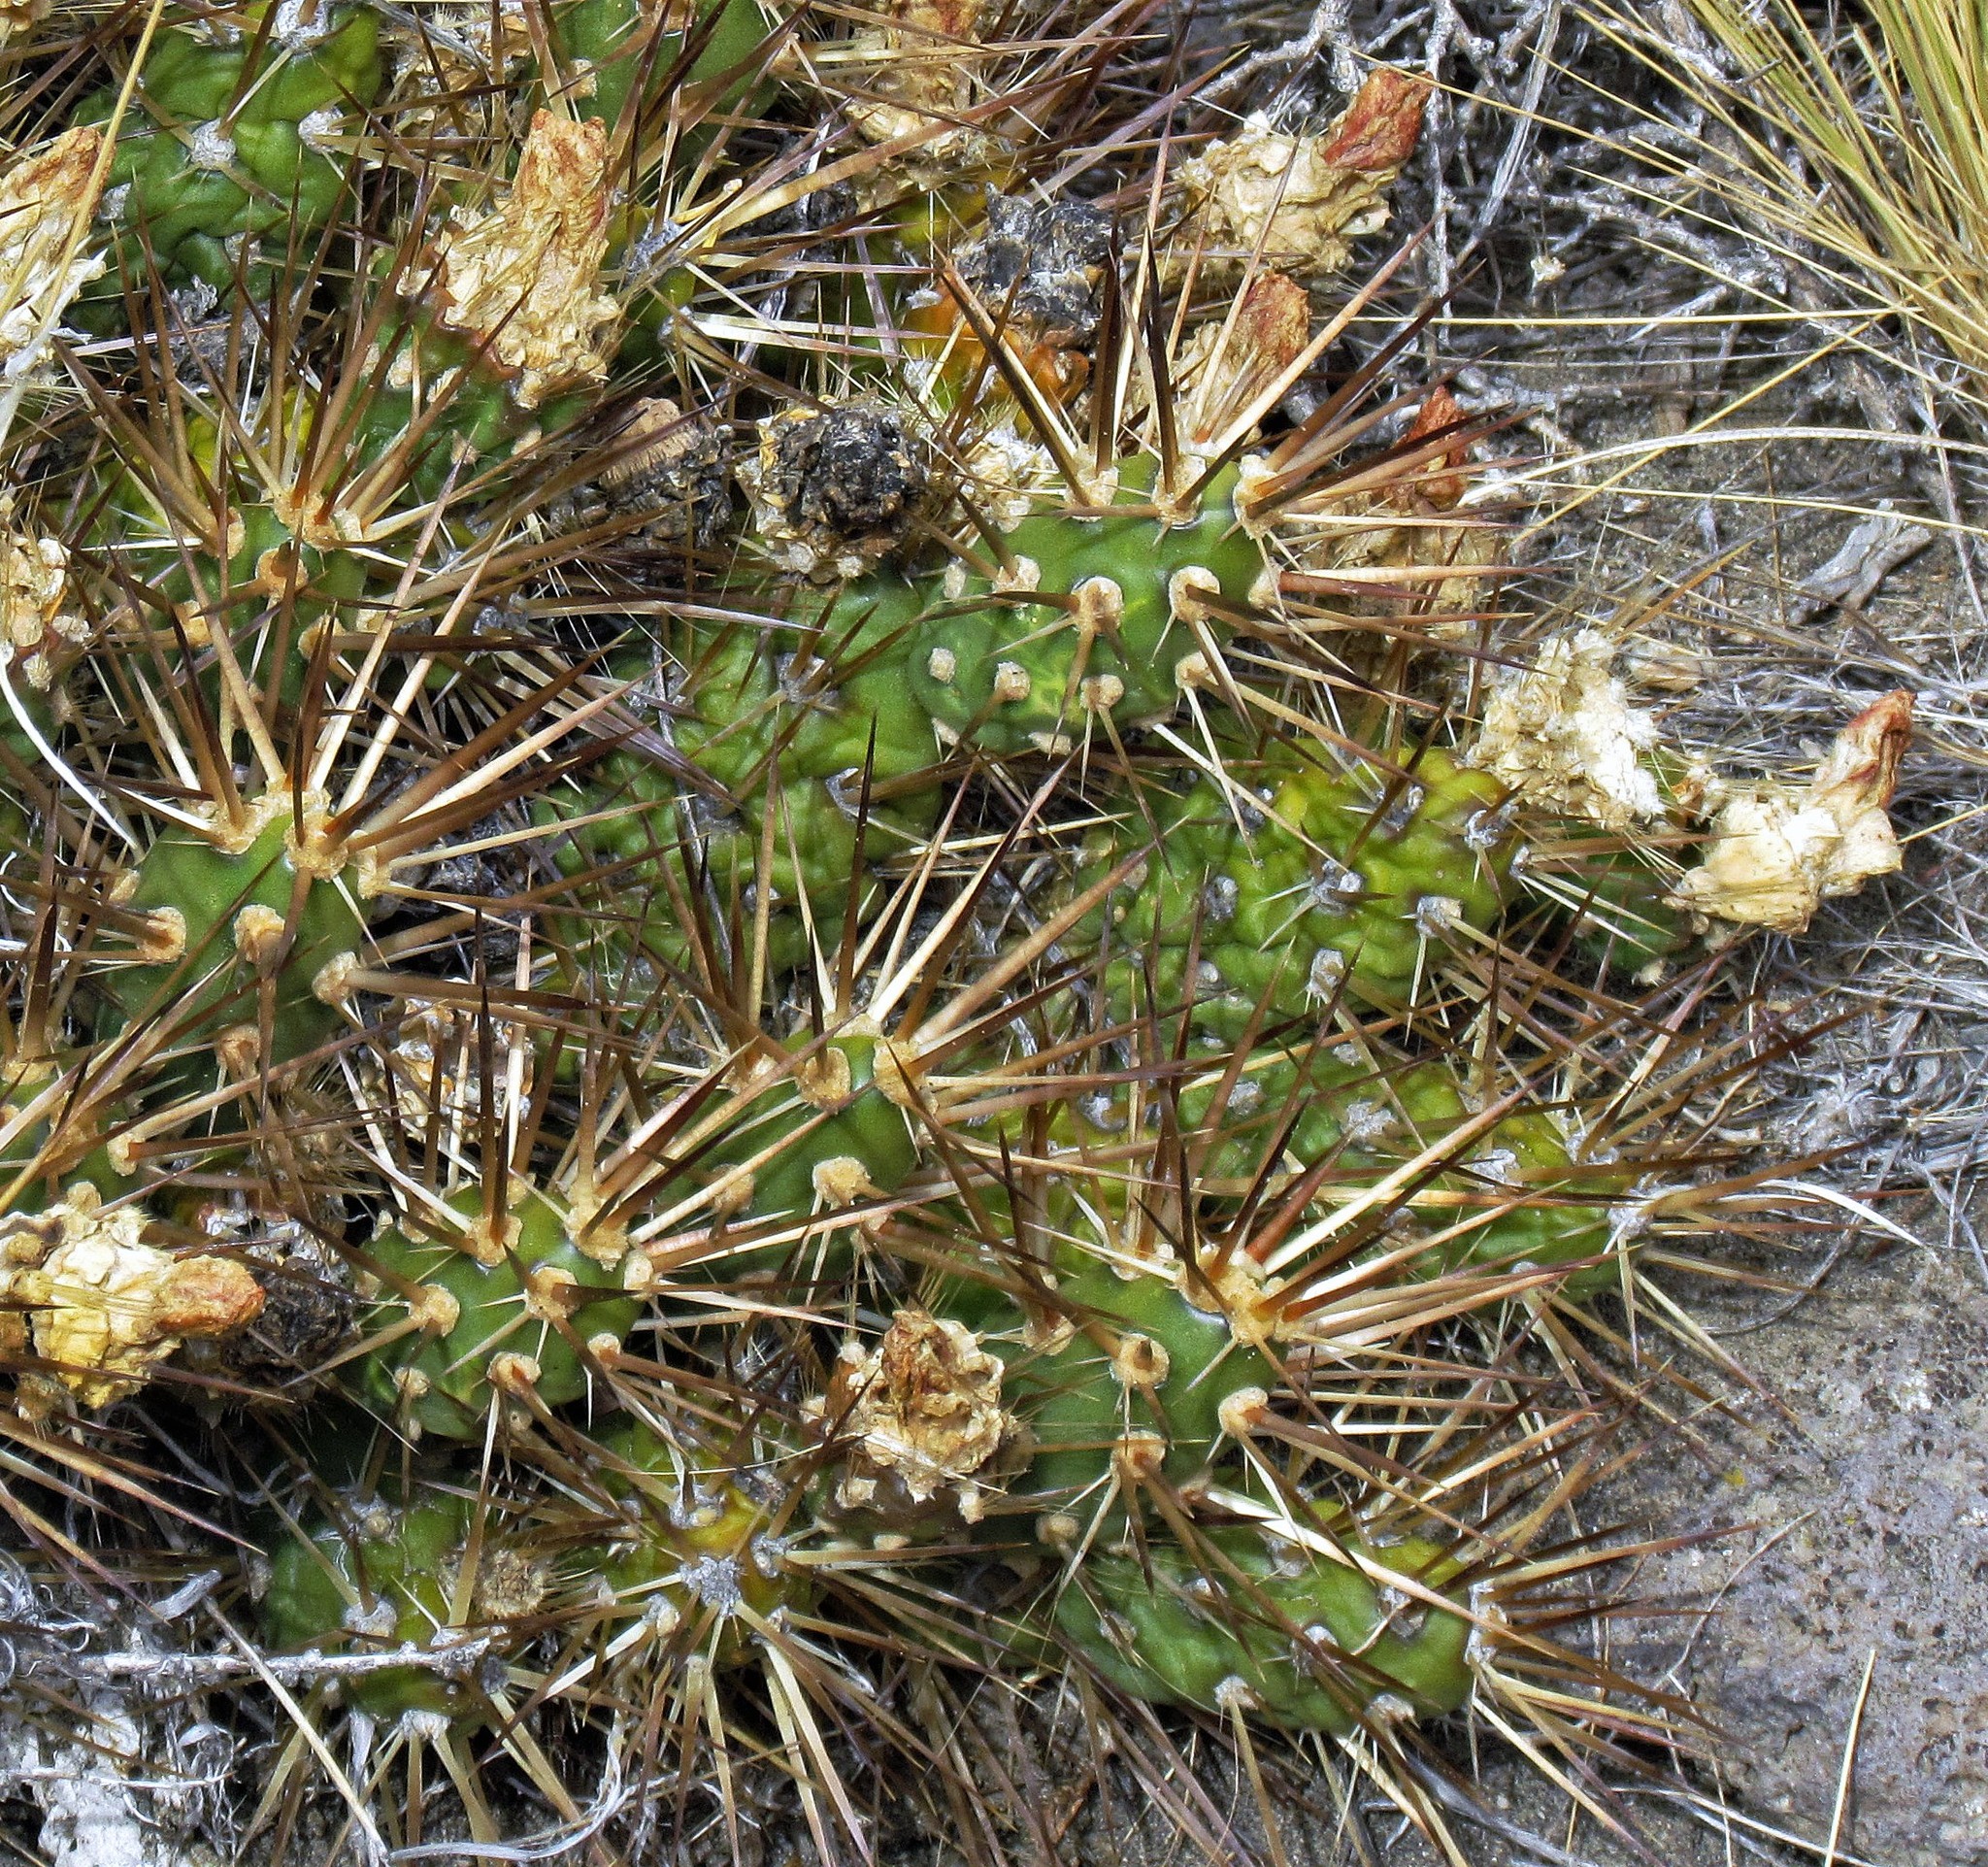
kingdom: Plantae
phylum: Tracheophyta
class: Magnoliopsida
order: Caryophyllales
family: Cactaceae
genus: Maihueniopsis
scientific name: Maihueniopsis darwinii
